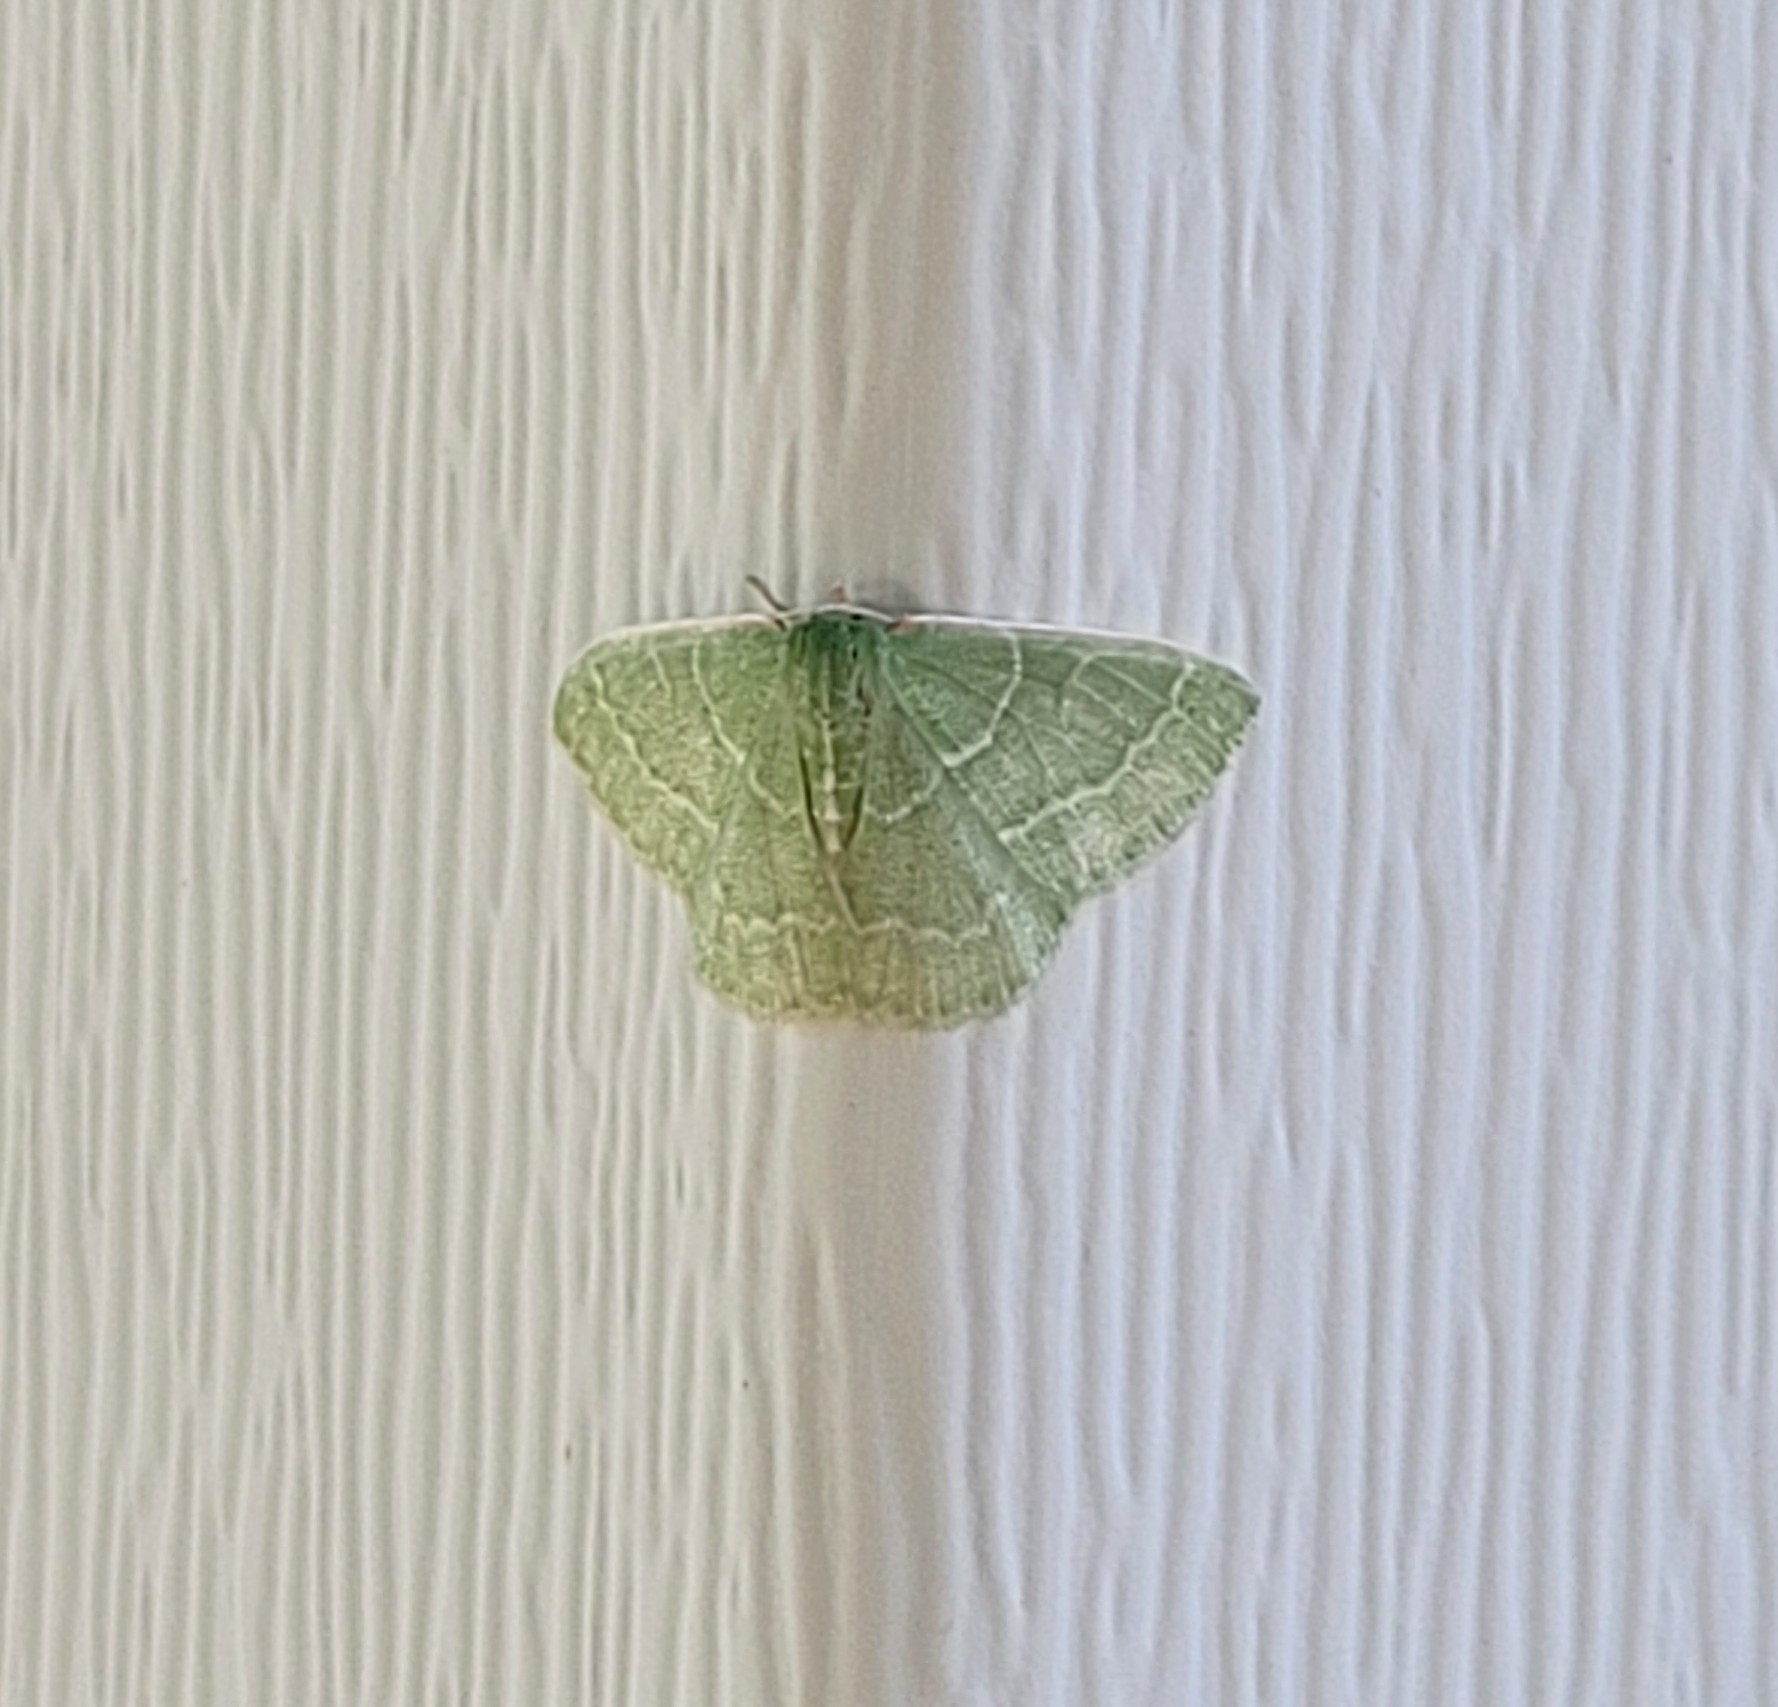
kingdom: Animalia
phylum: Arthropoda
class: Insecta
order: Lepidoptera
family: Geometridae
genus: Synchlora
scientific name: Synchlora aerata
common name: Wavy-lined emerald
